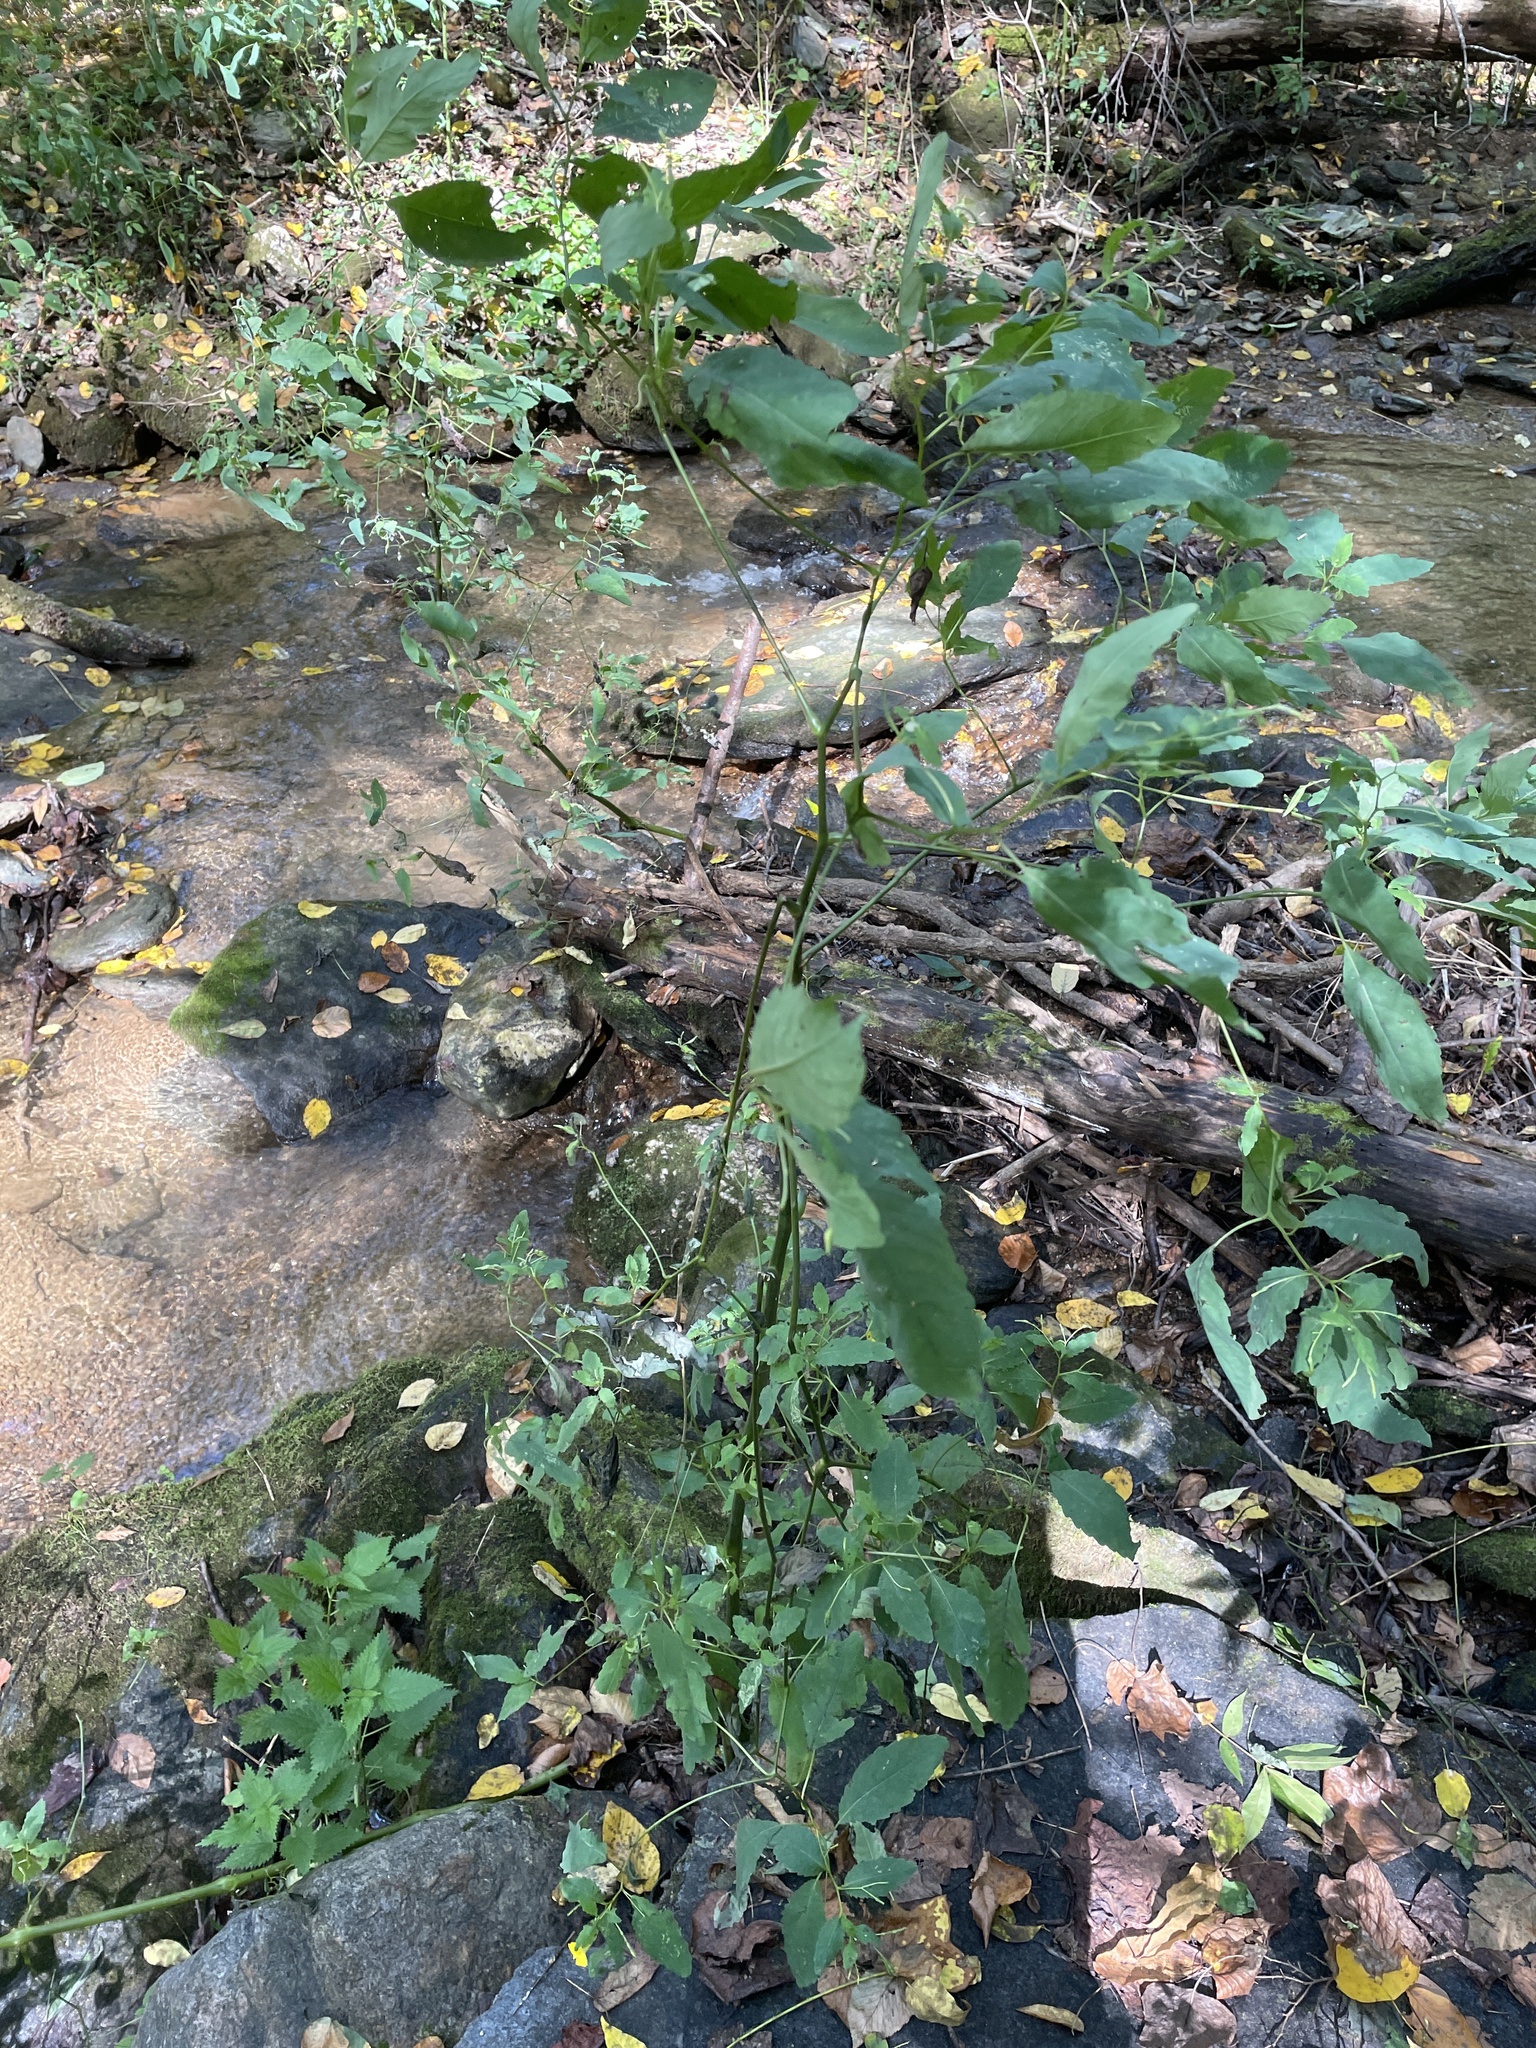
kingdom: Plantae
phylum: Tracheophyta
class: Magnoliopsida
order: Ericales
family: Balsaminaceae
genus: Impatiens
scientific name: Impatiens pallida
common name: Pale snapweed
